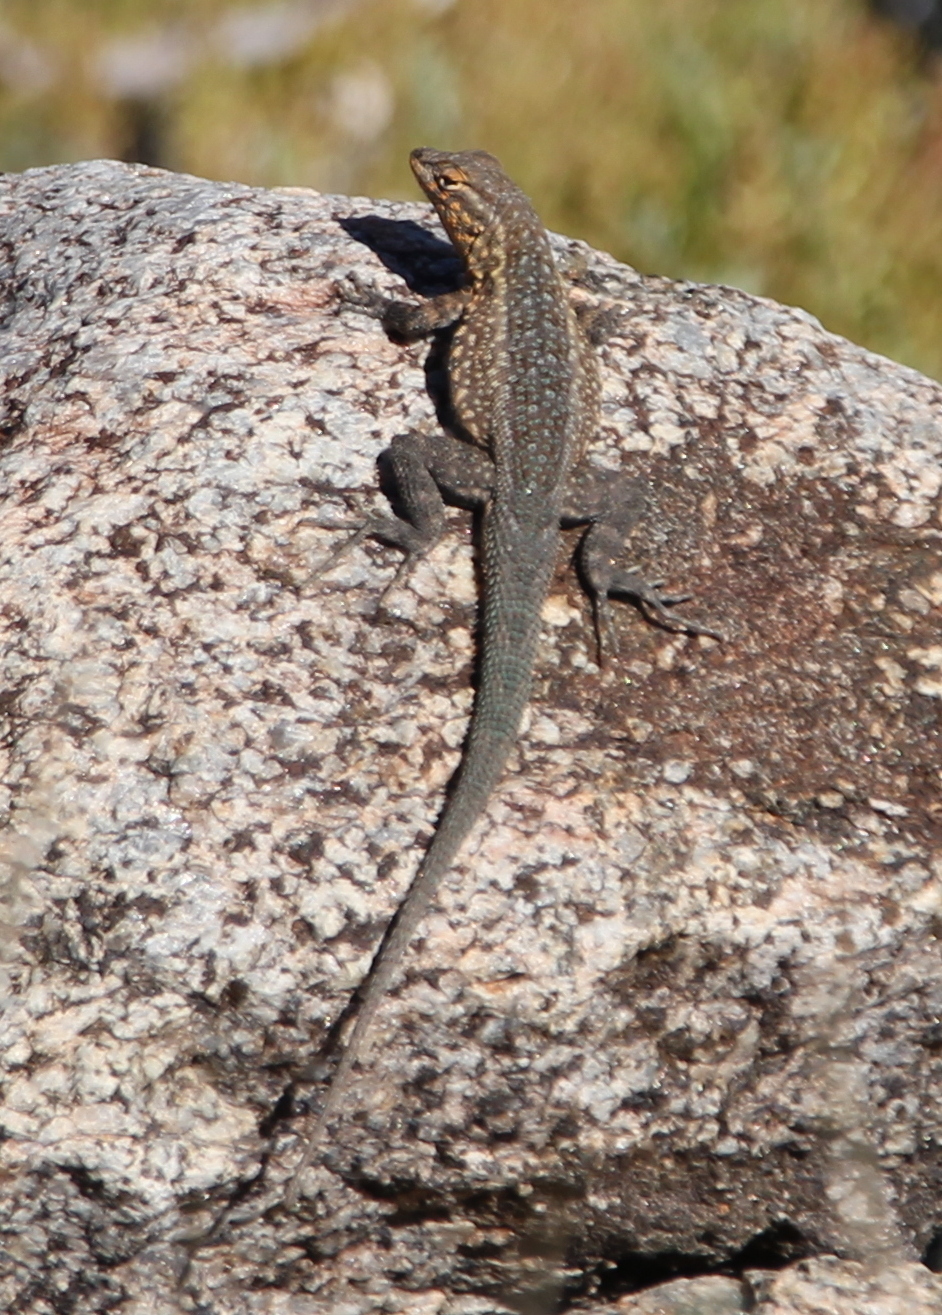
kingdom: Animalia
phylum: Chordata
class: Squamata
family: Phrynosomatidae
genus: Uta
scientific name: Uta stansburiana
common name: Side-blotched lizard
